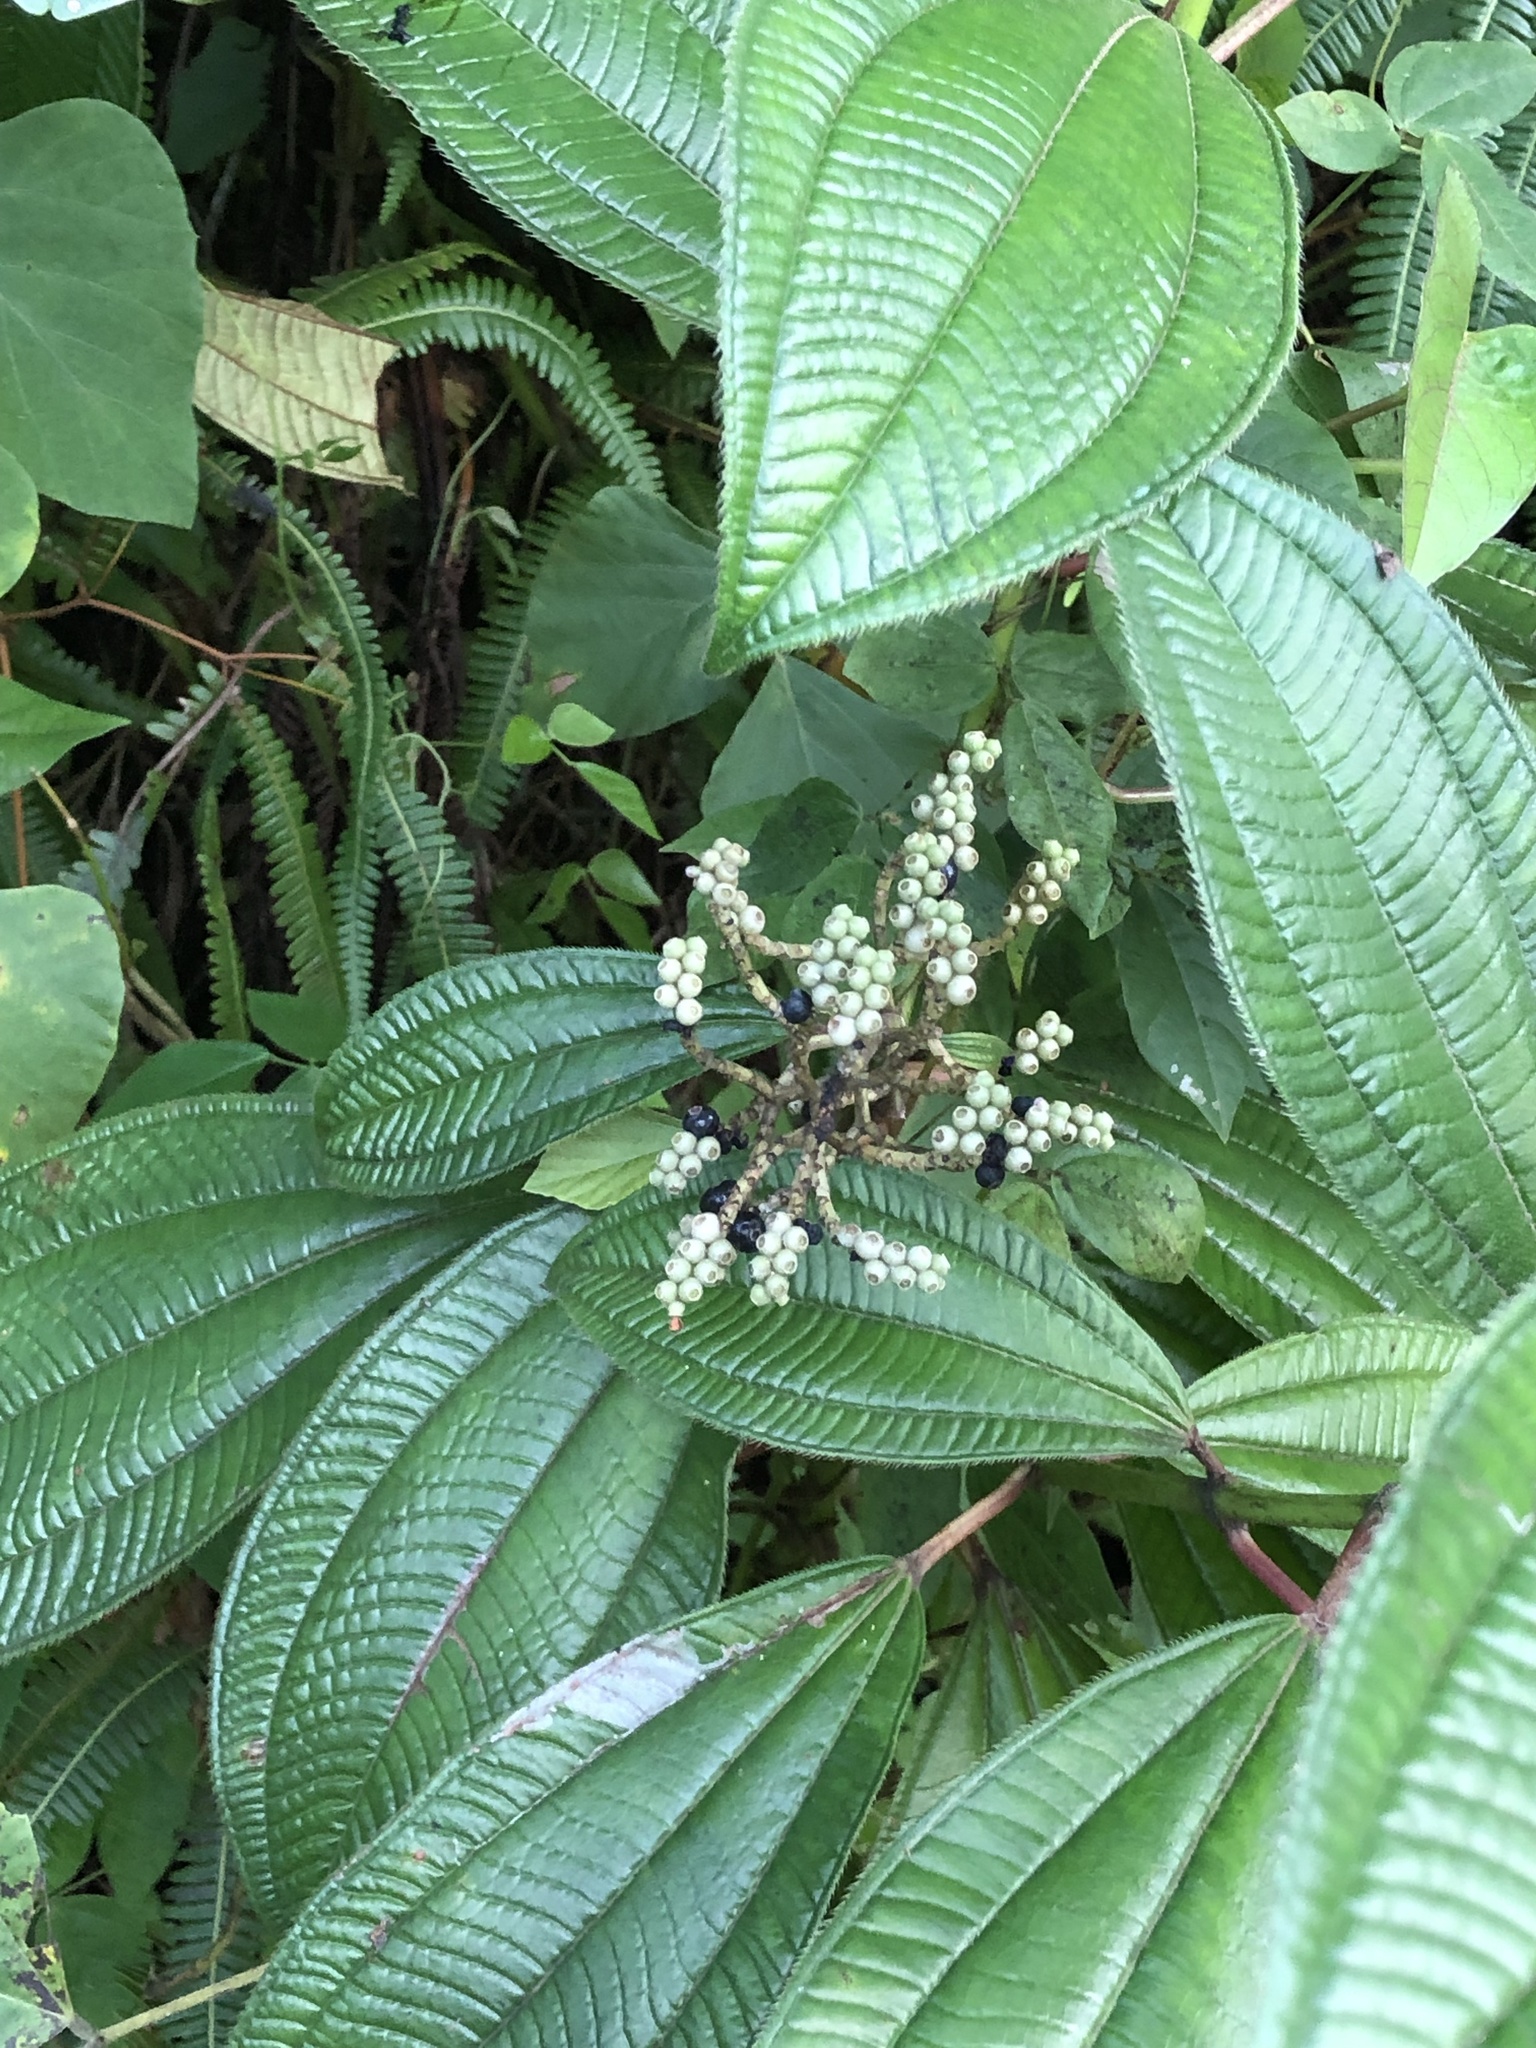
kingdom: Plantae
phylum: Tracheophyta
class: Magnoliopsida
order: Myrtales
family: Melastomataceae
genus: Miconia
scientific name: Miconia racemosa
